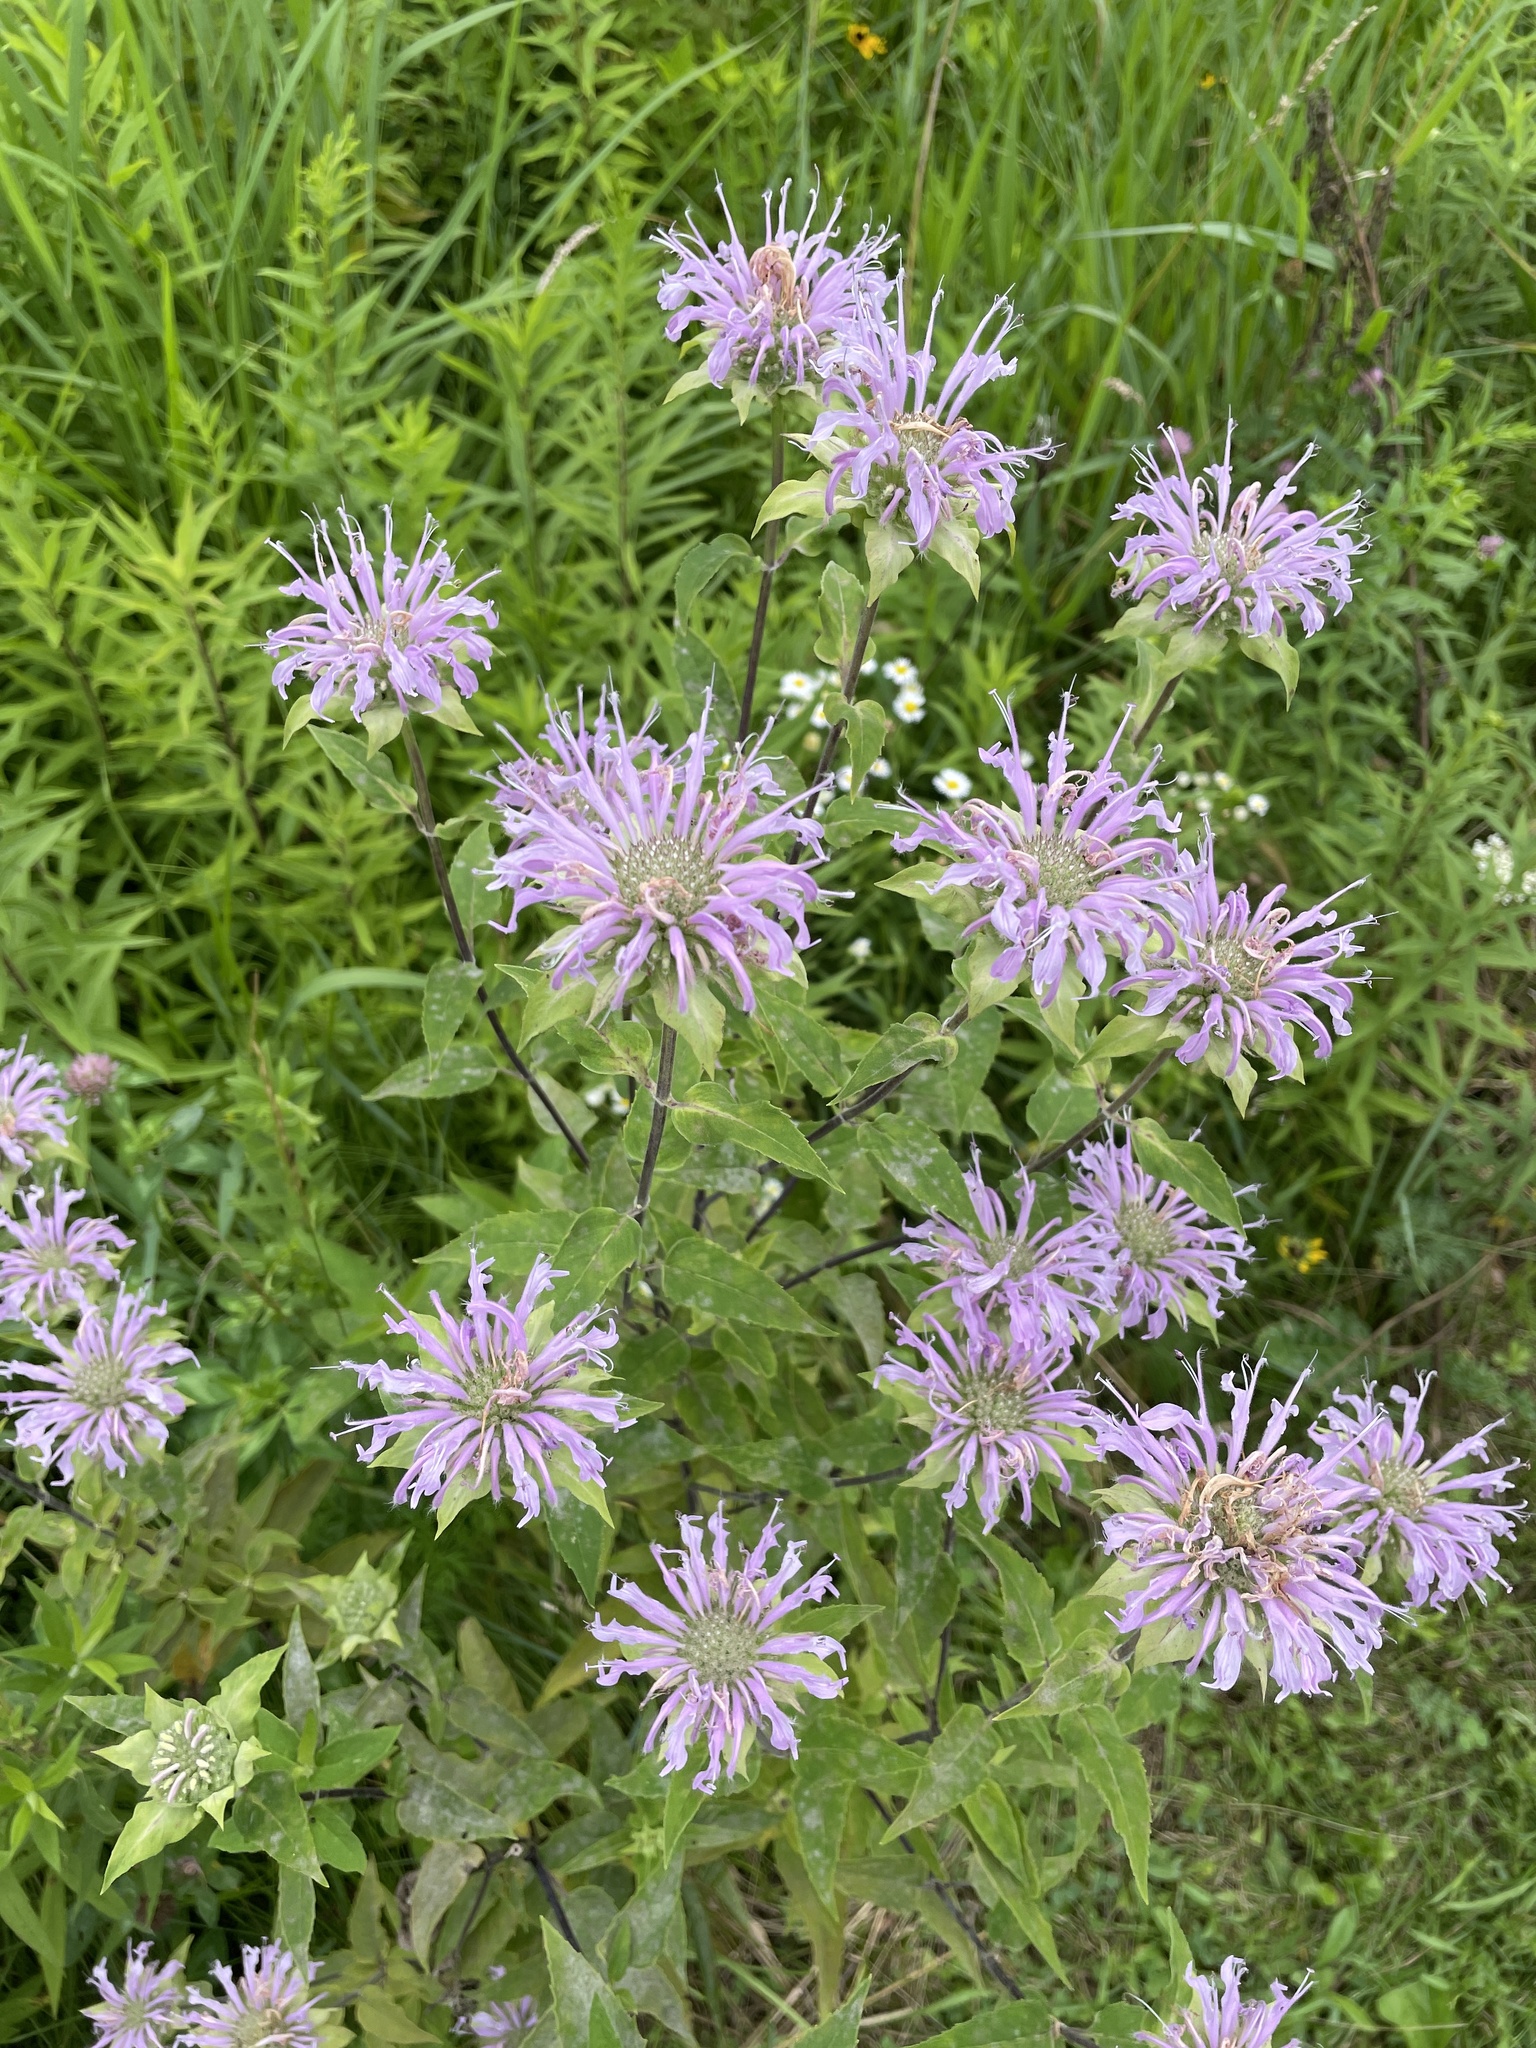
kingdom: Plantae
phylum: Tracheophyta
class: Magnoliopsida
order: Lamiales
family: Lamiaceae
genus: Monarda
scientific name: Monarda fistulosa
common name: Purple beebalm
